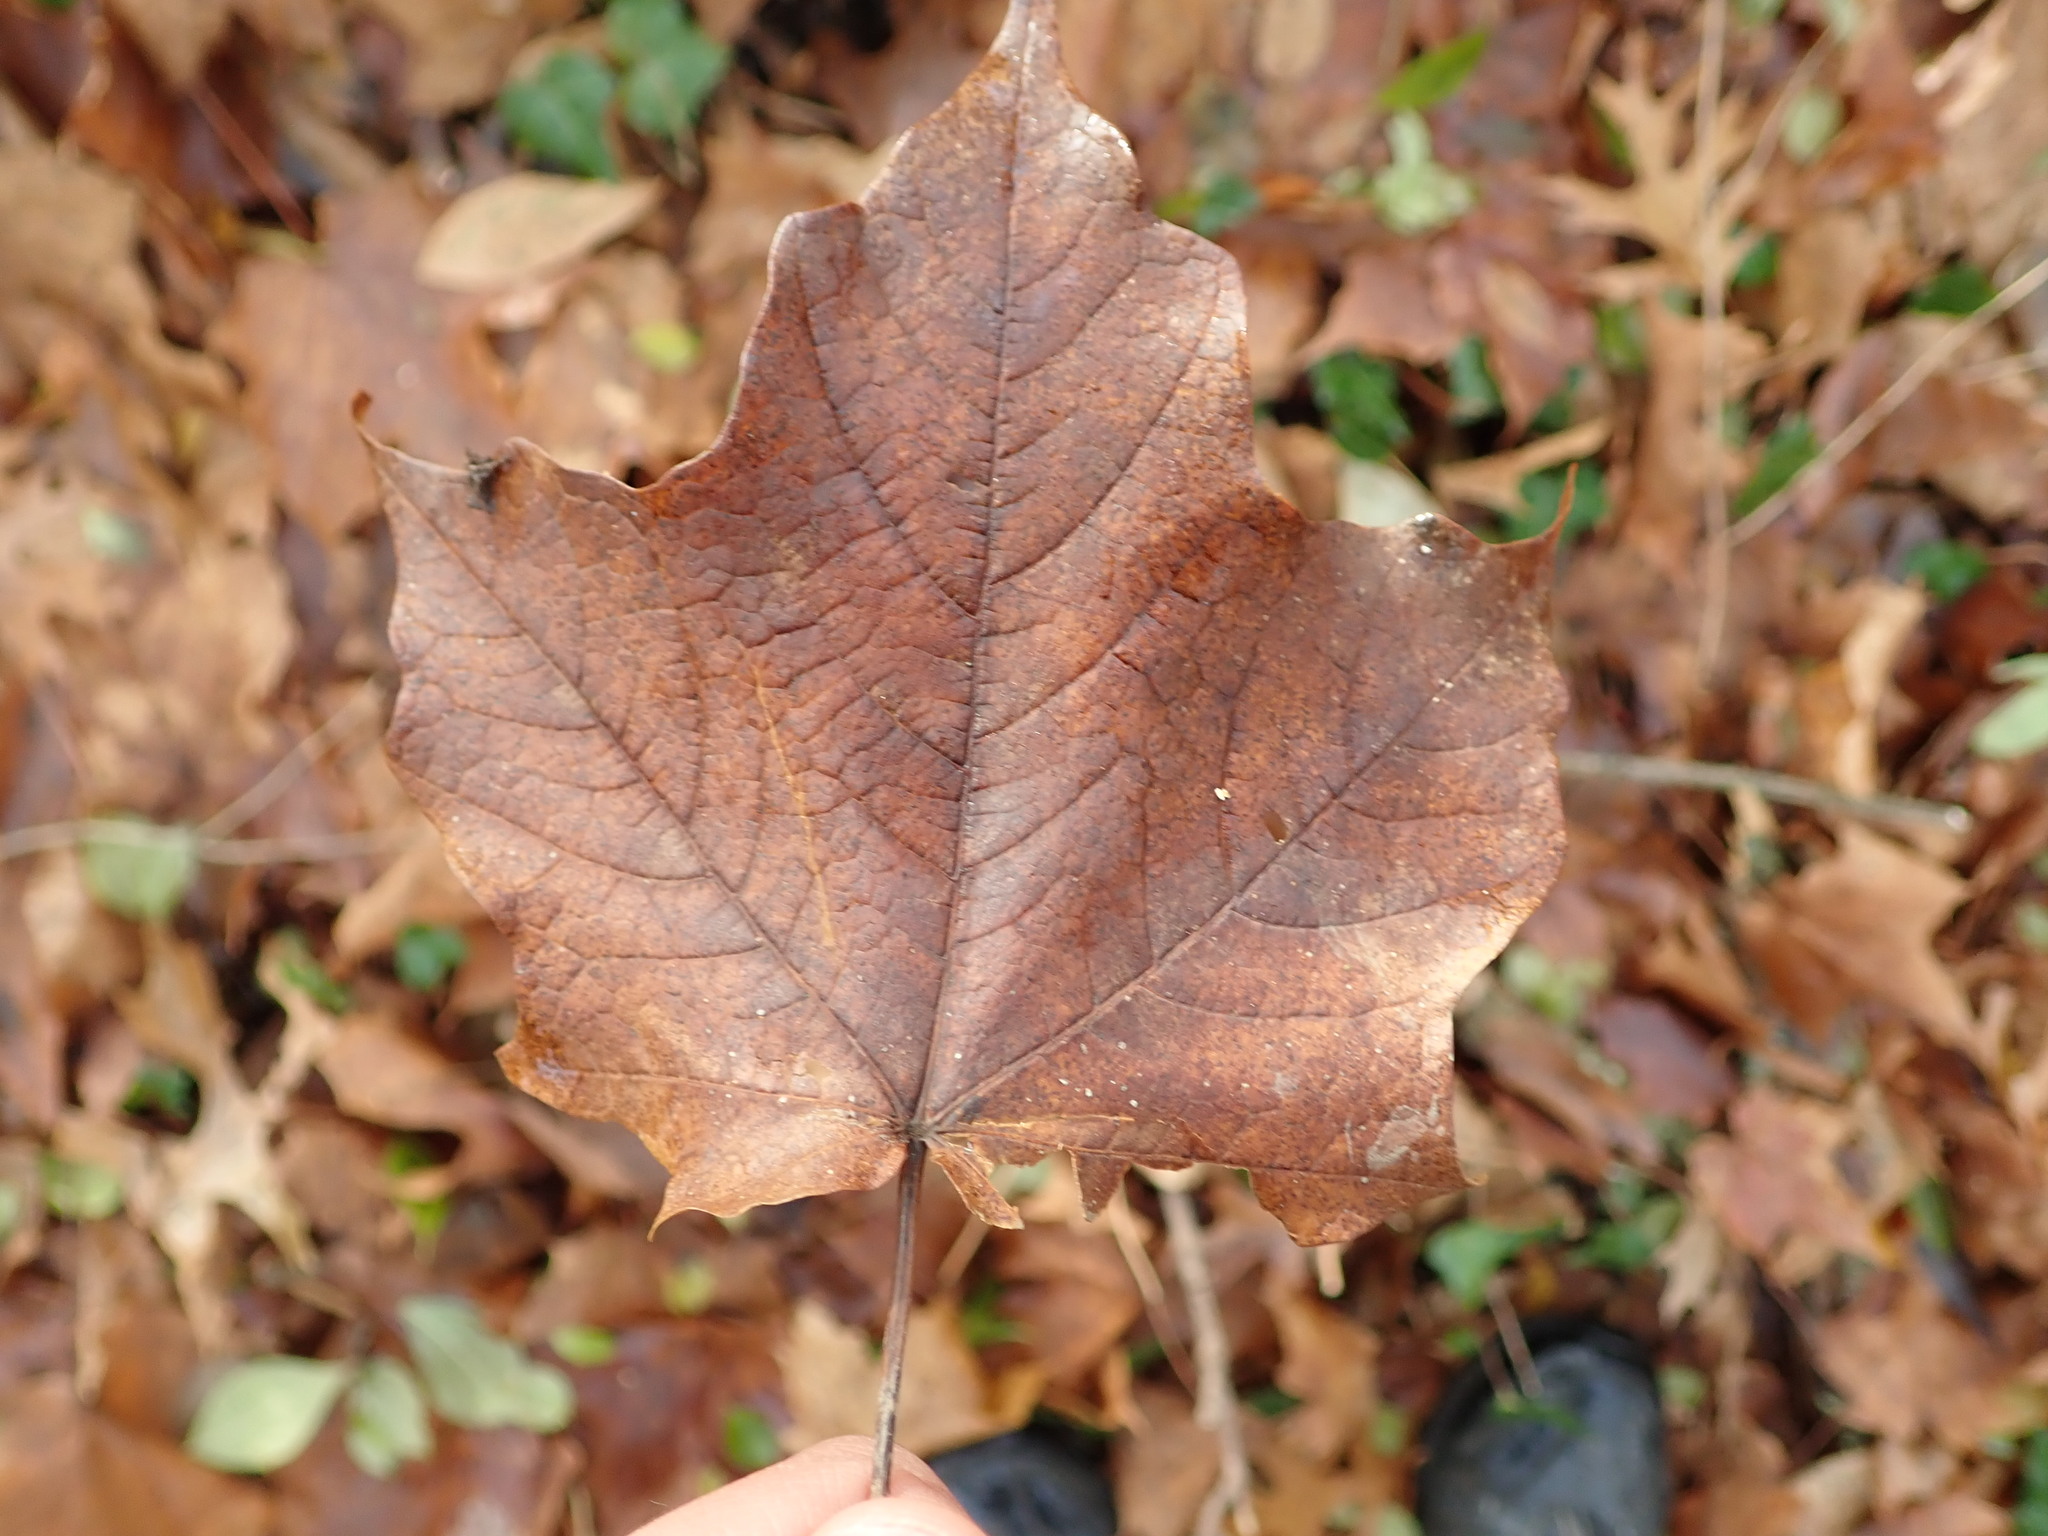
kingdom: Plantae
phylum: Tracheophyta
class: Magnoliopsida
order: Sapindales
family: Sapindaceae
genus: Acer
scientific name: Acer saccharum
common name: Sugar maple
